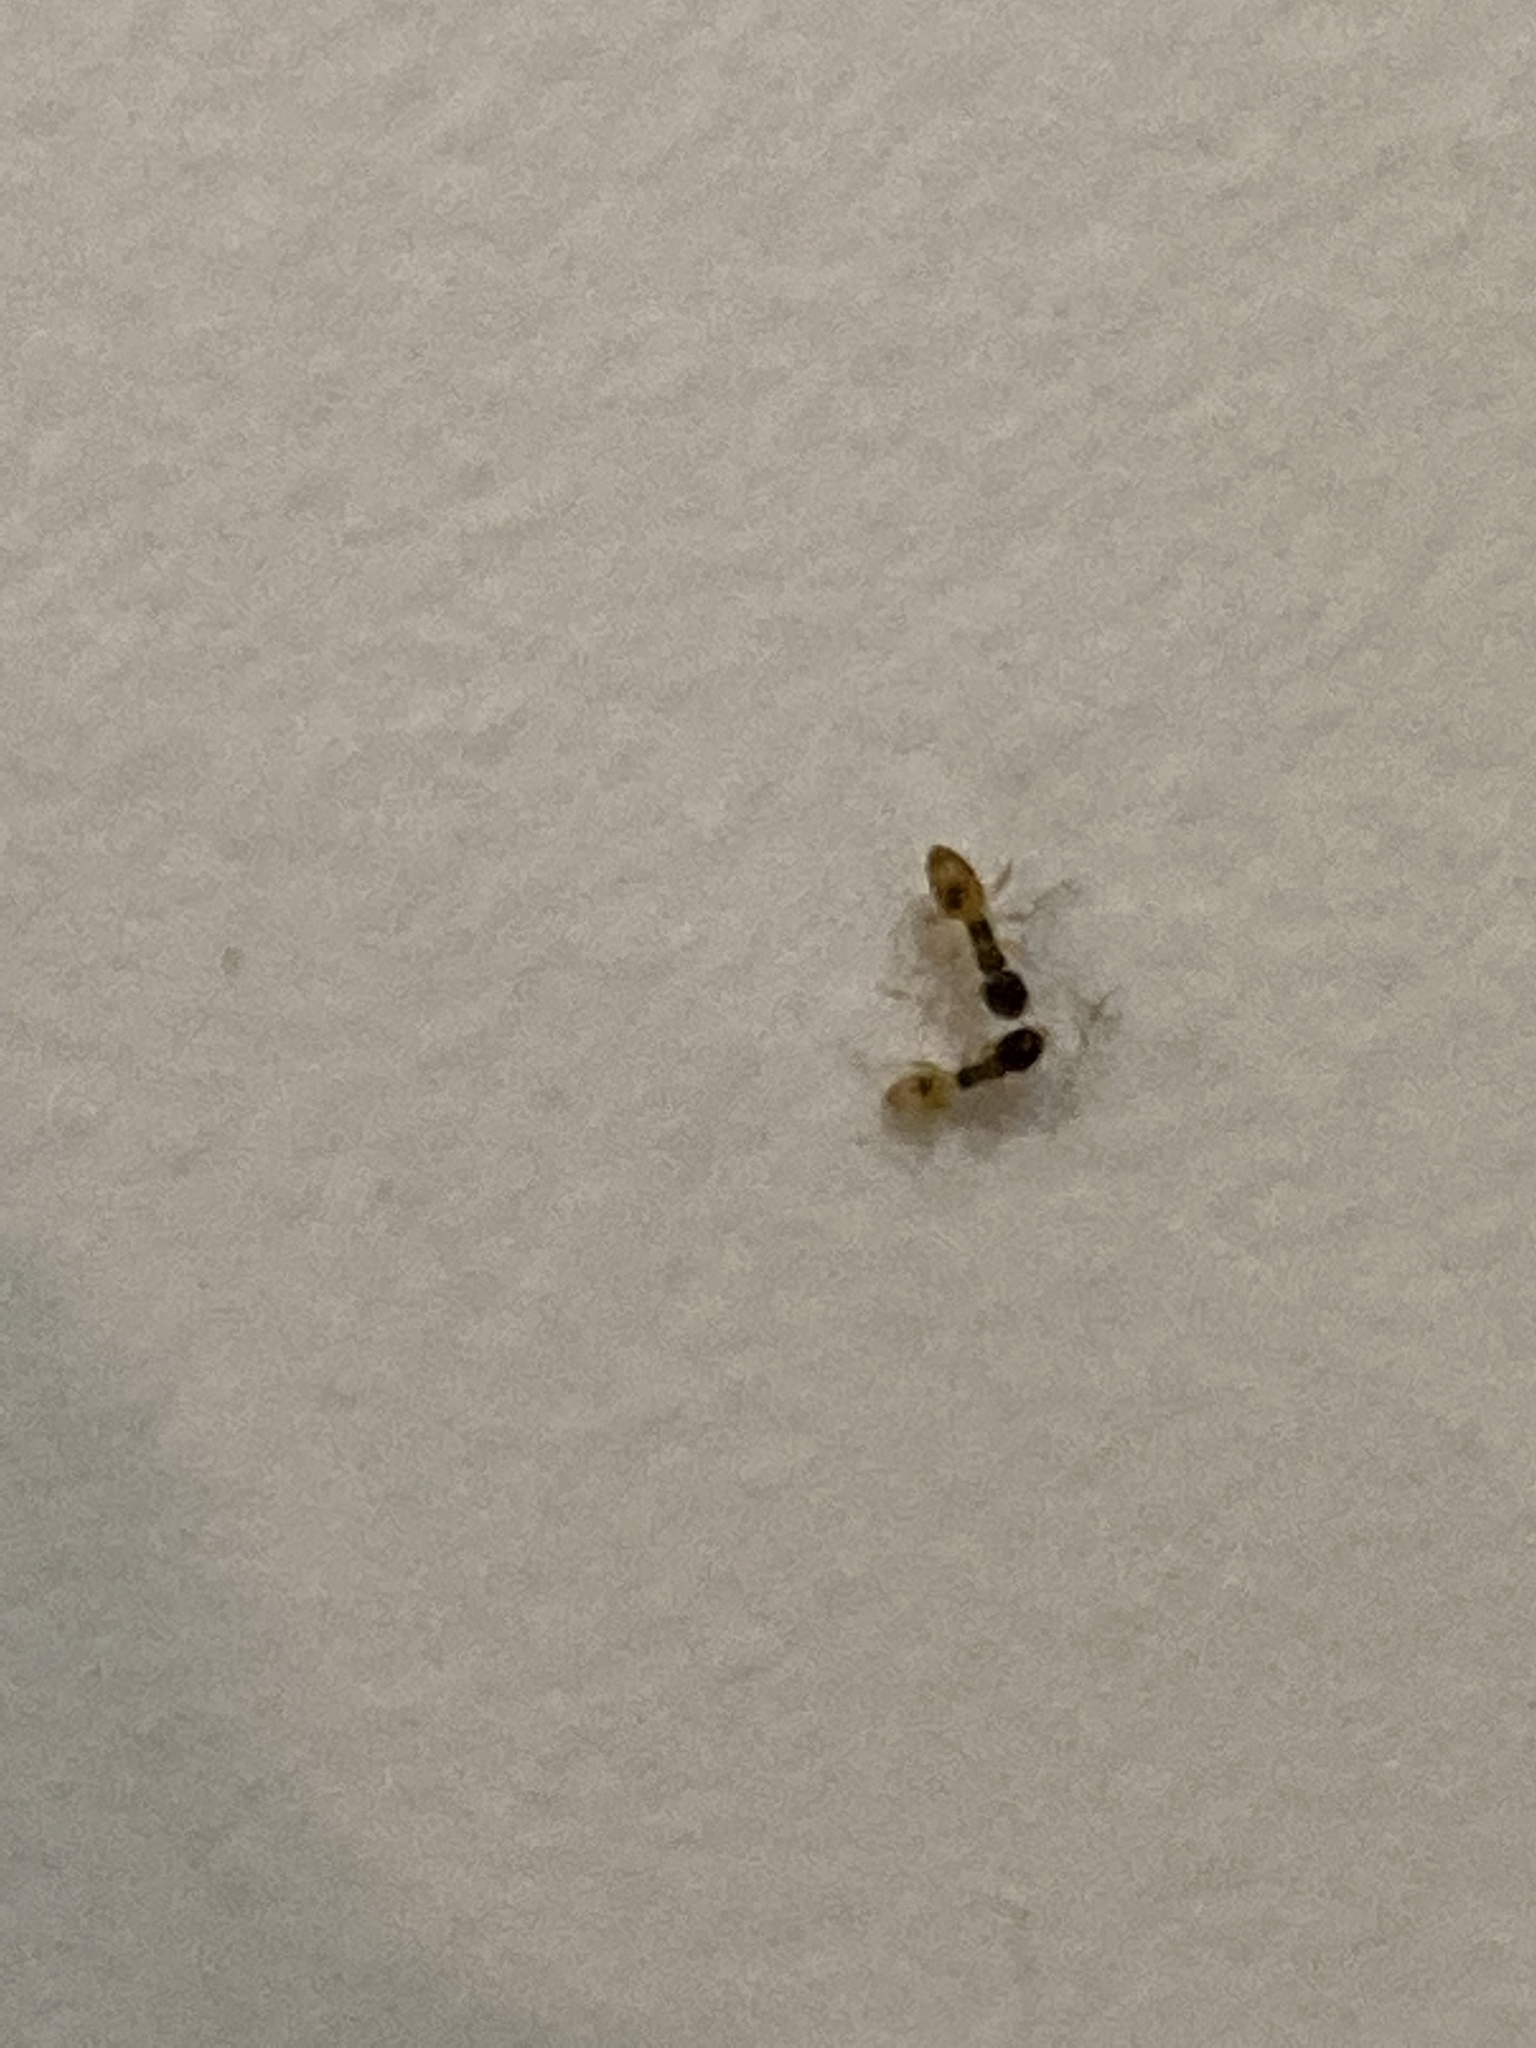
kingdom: Animalia
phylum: Arthropoda
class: Insecta
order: Hymenoptera
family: Formicidae
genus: Tapinoma
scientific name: Tapinoma melanocephalum
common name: Ghost ant
